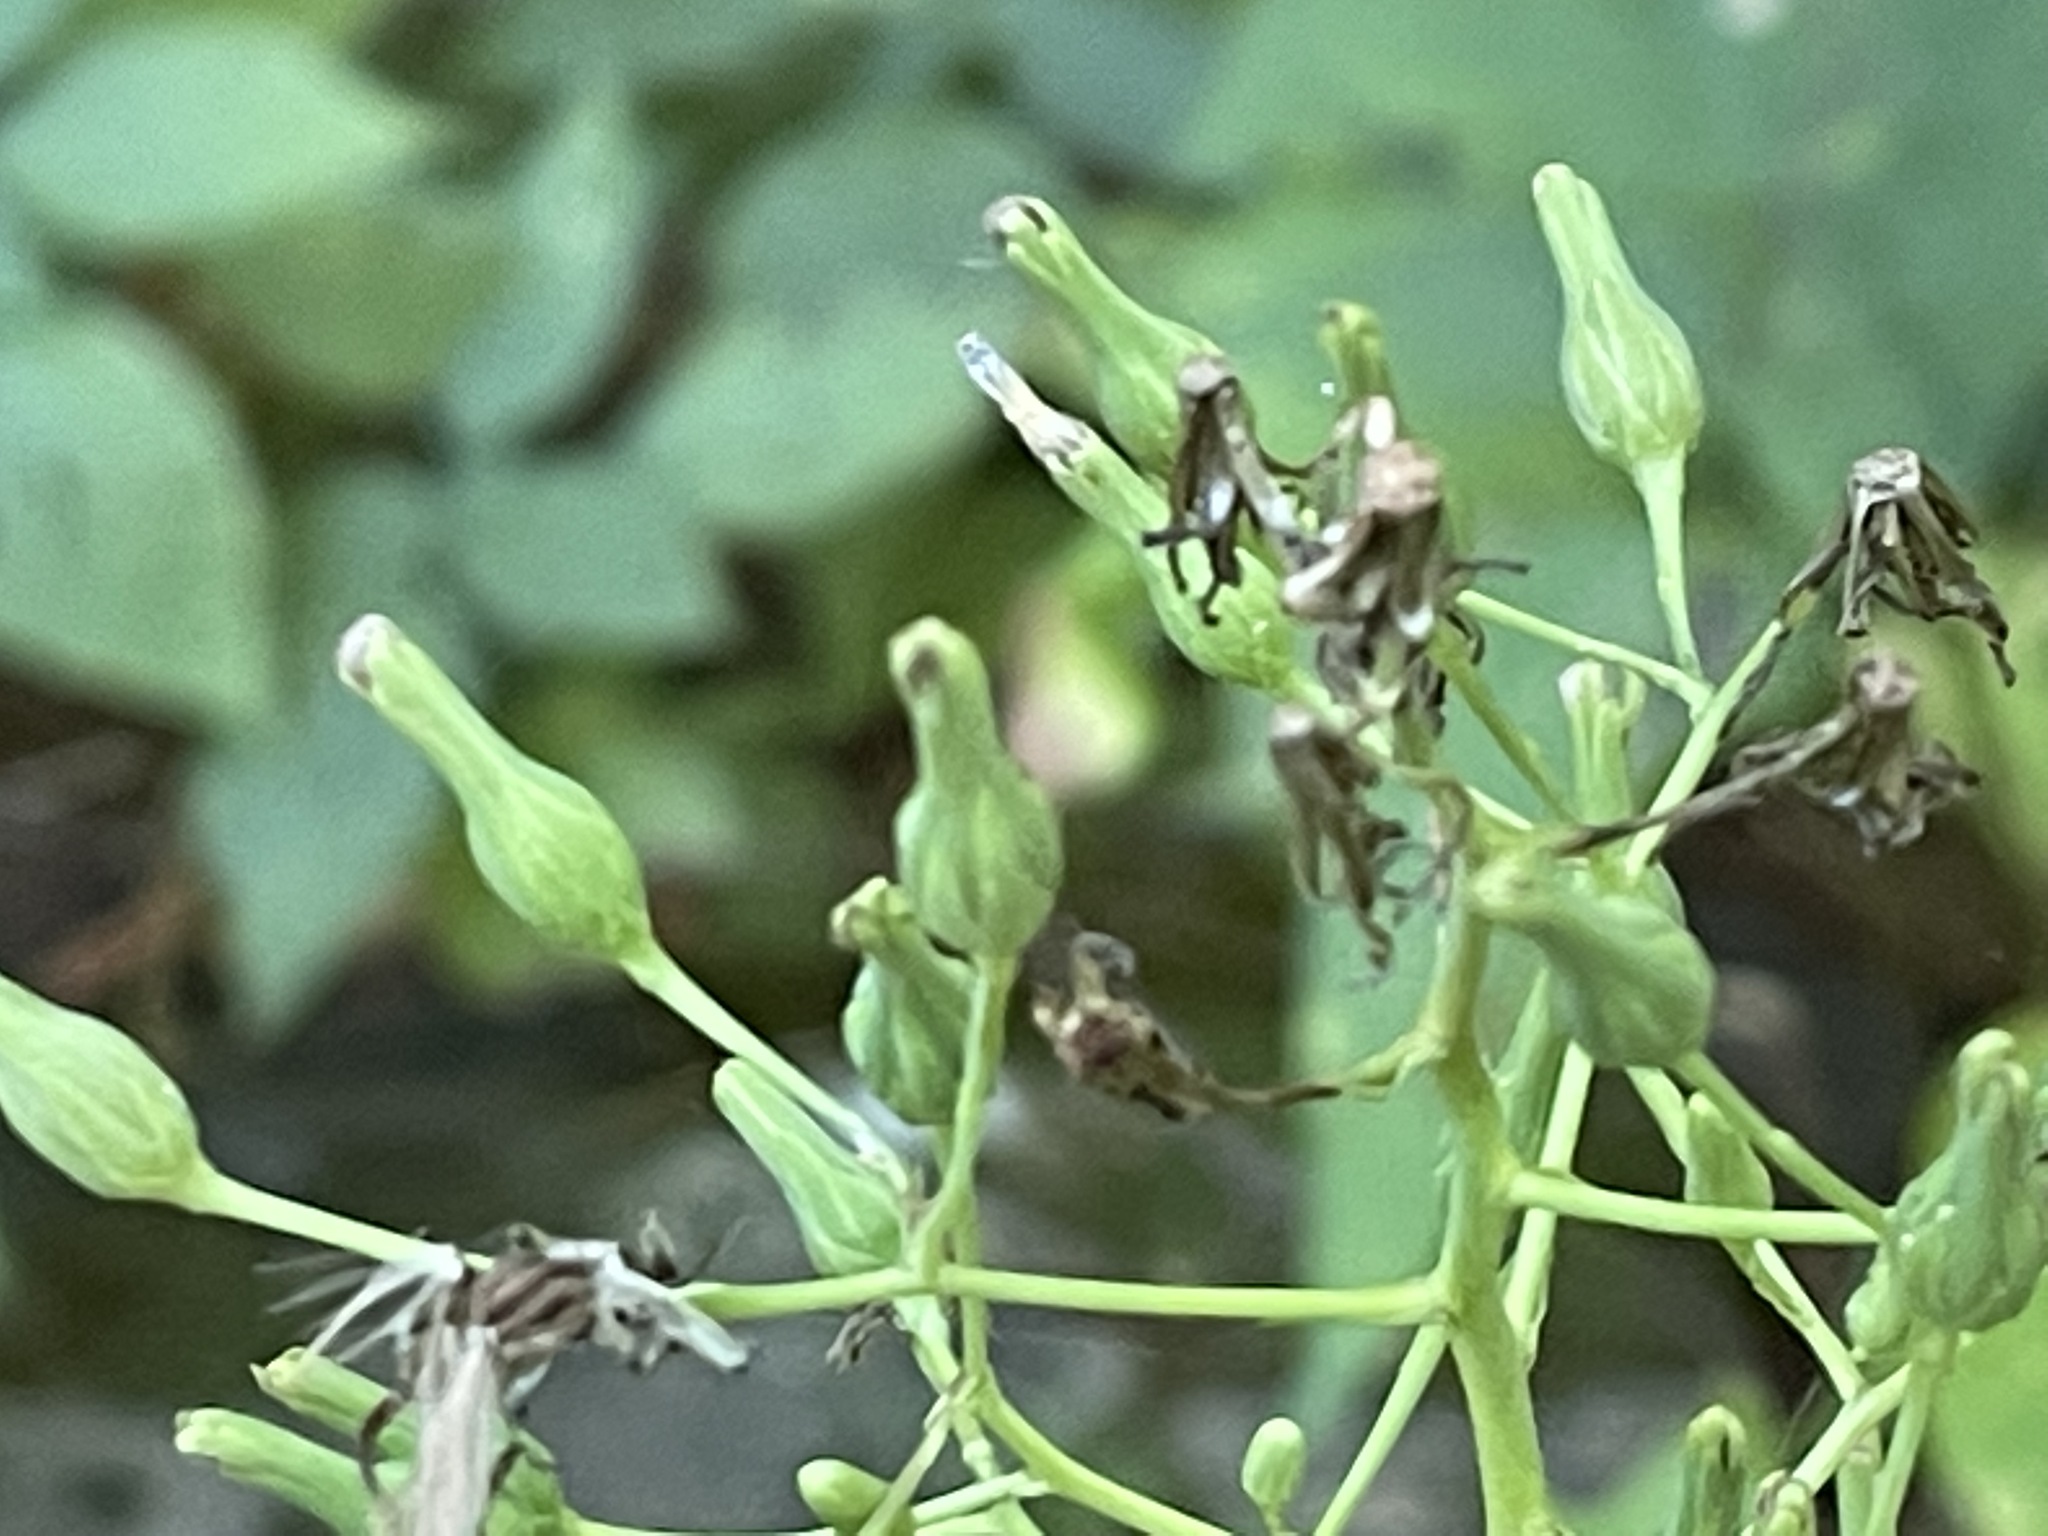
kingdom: Plantae
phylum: Tracheophyta
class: Magnoliopsida
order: Asterales
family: Asteraceae
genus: Lactuca
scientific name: Lactuca biennis
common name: Blue wood lettuce
